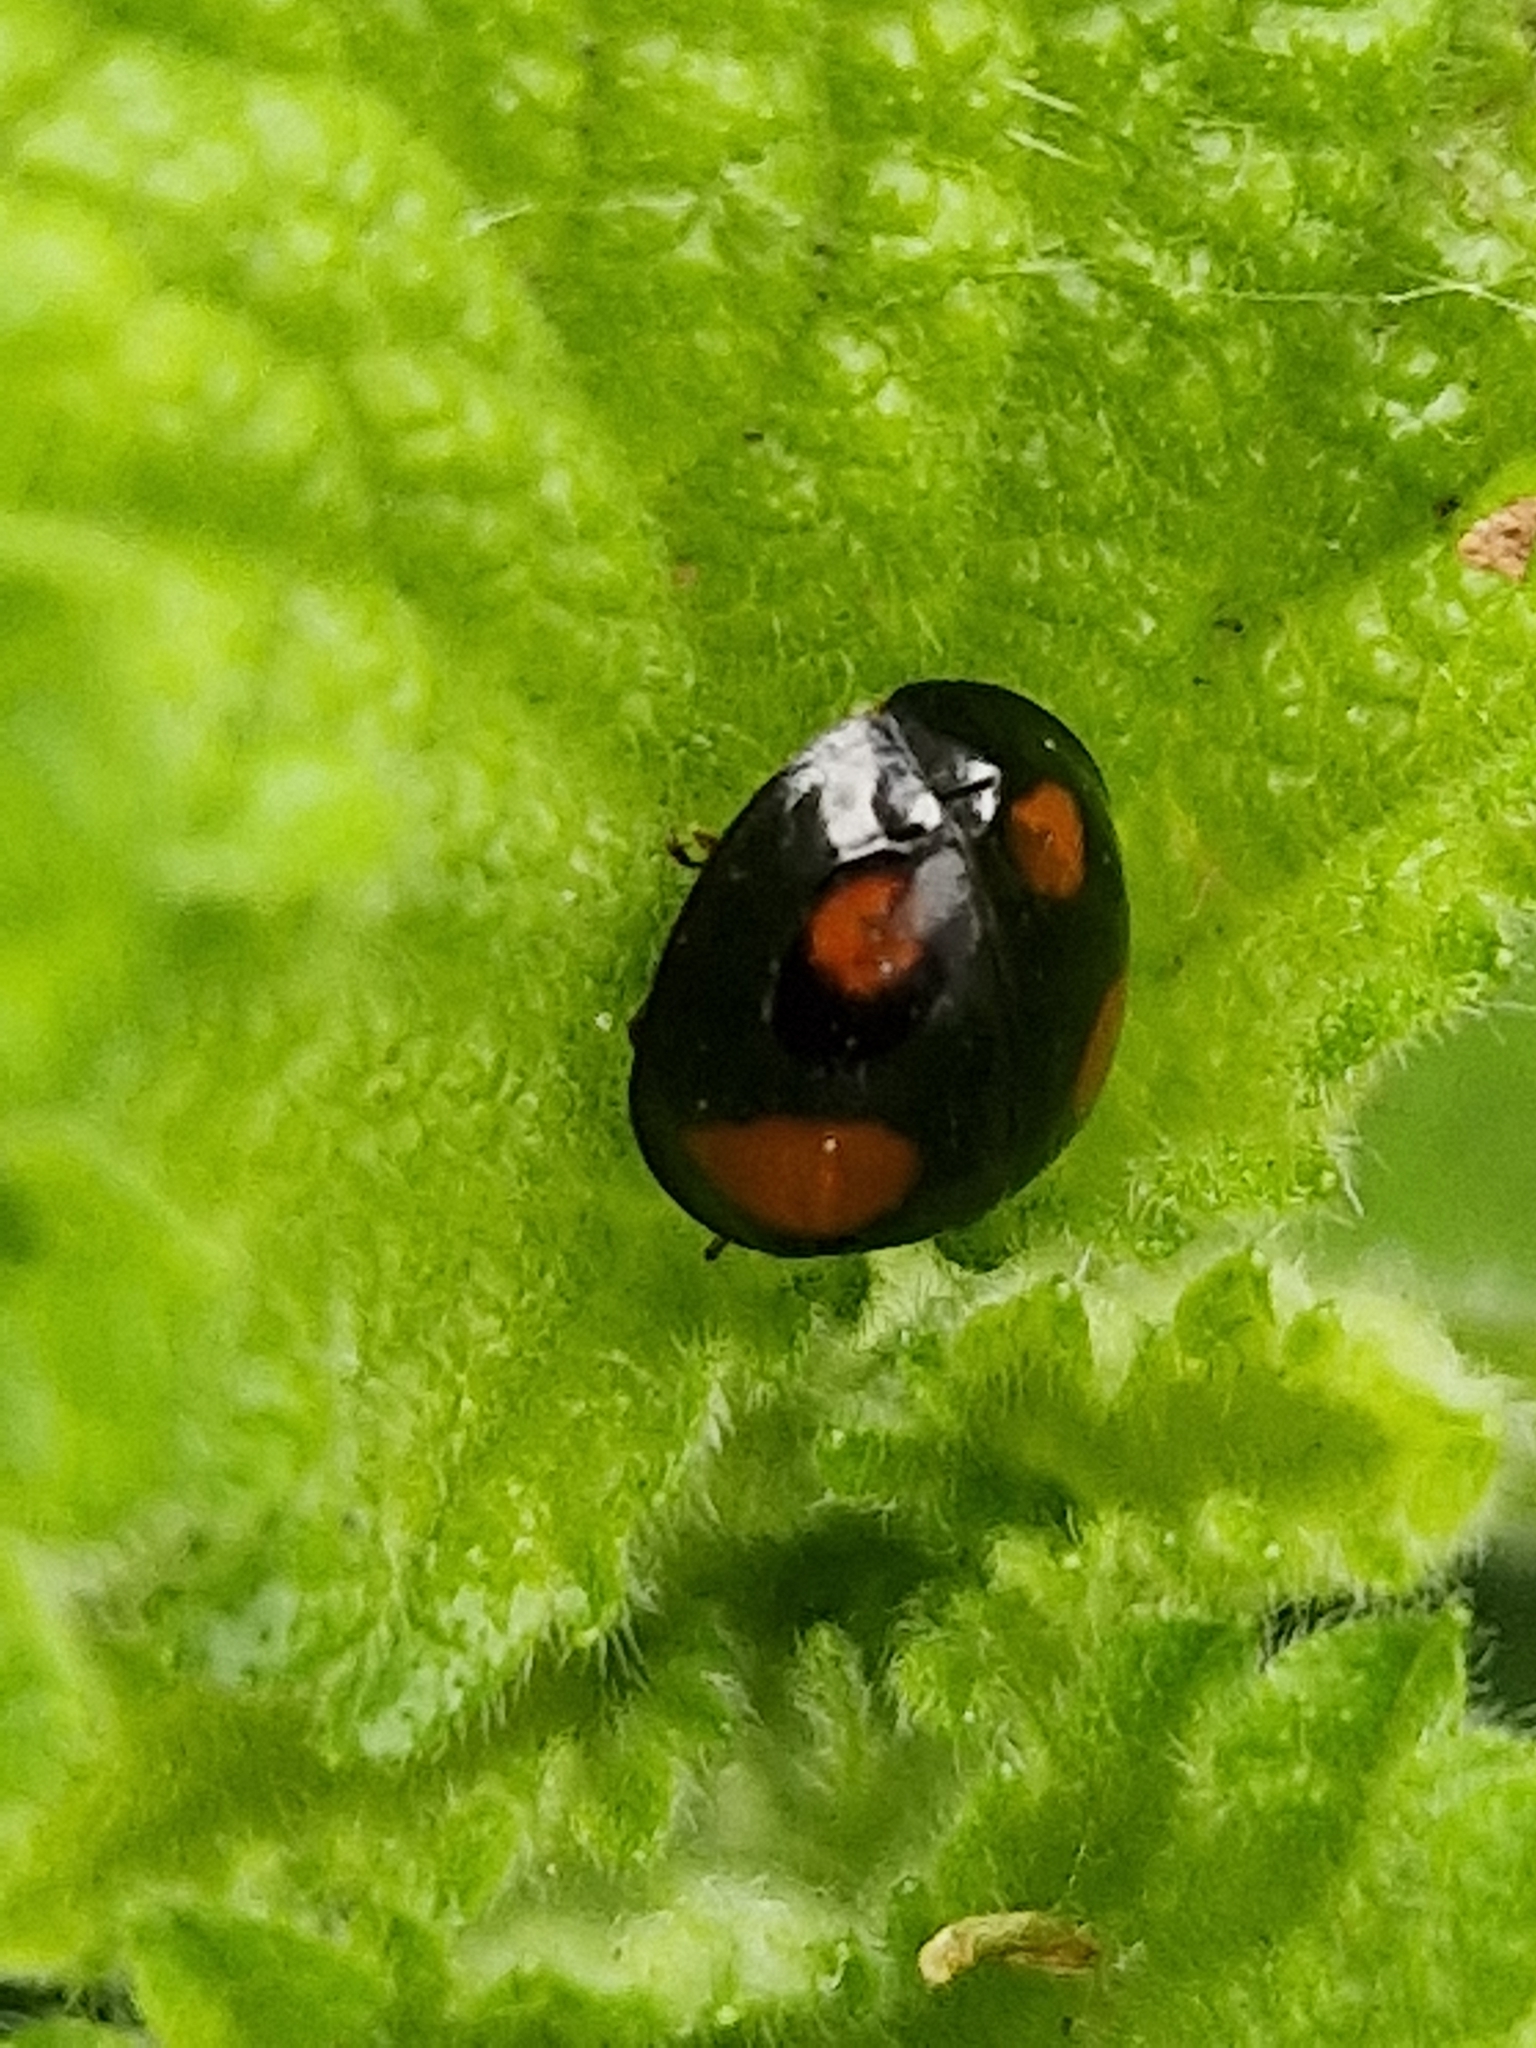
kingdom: Animalia
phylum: Arthropoda
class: Insecta
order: Coleoptera
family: Coccinellidae
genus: Harmonia
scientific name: Harmonia axyridis
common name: Harlequin ladybird
